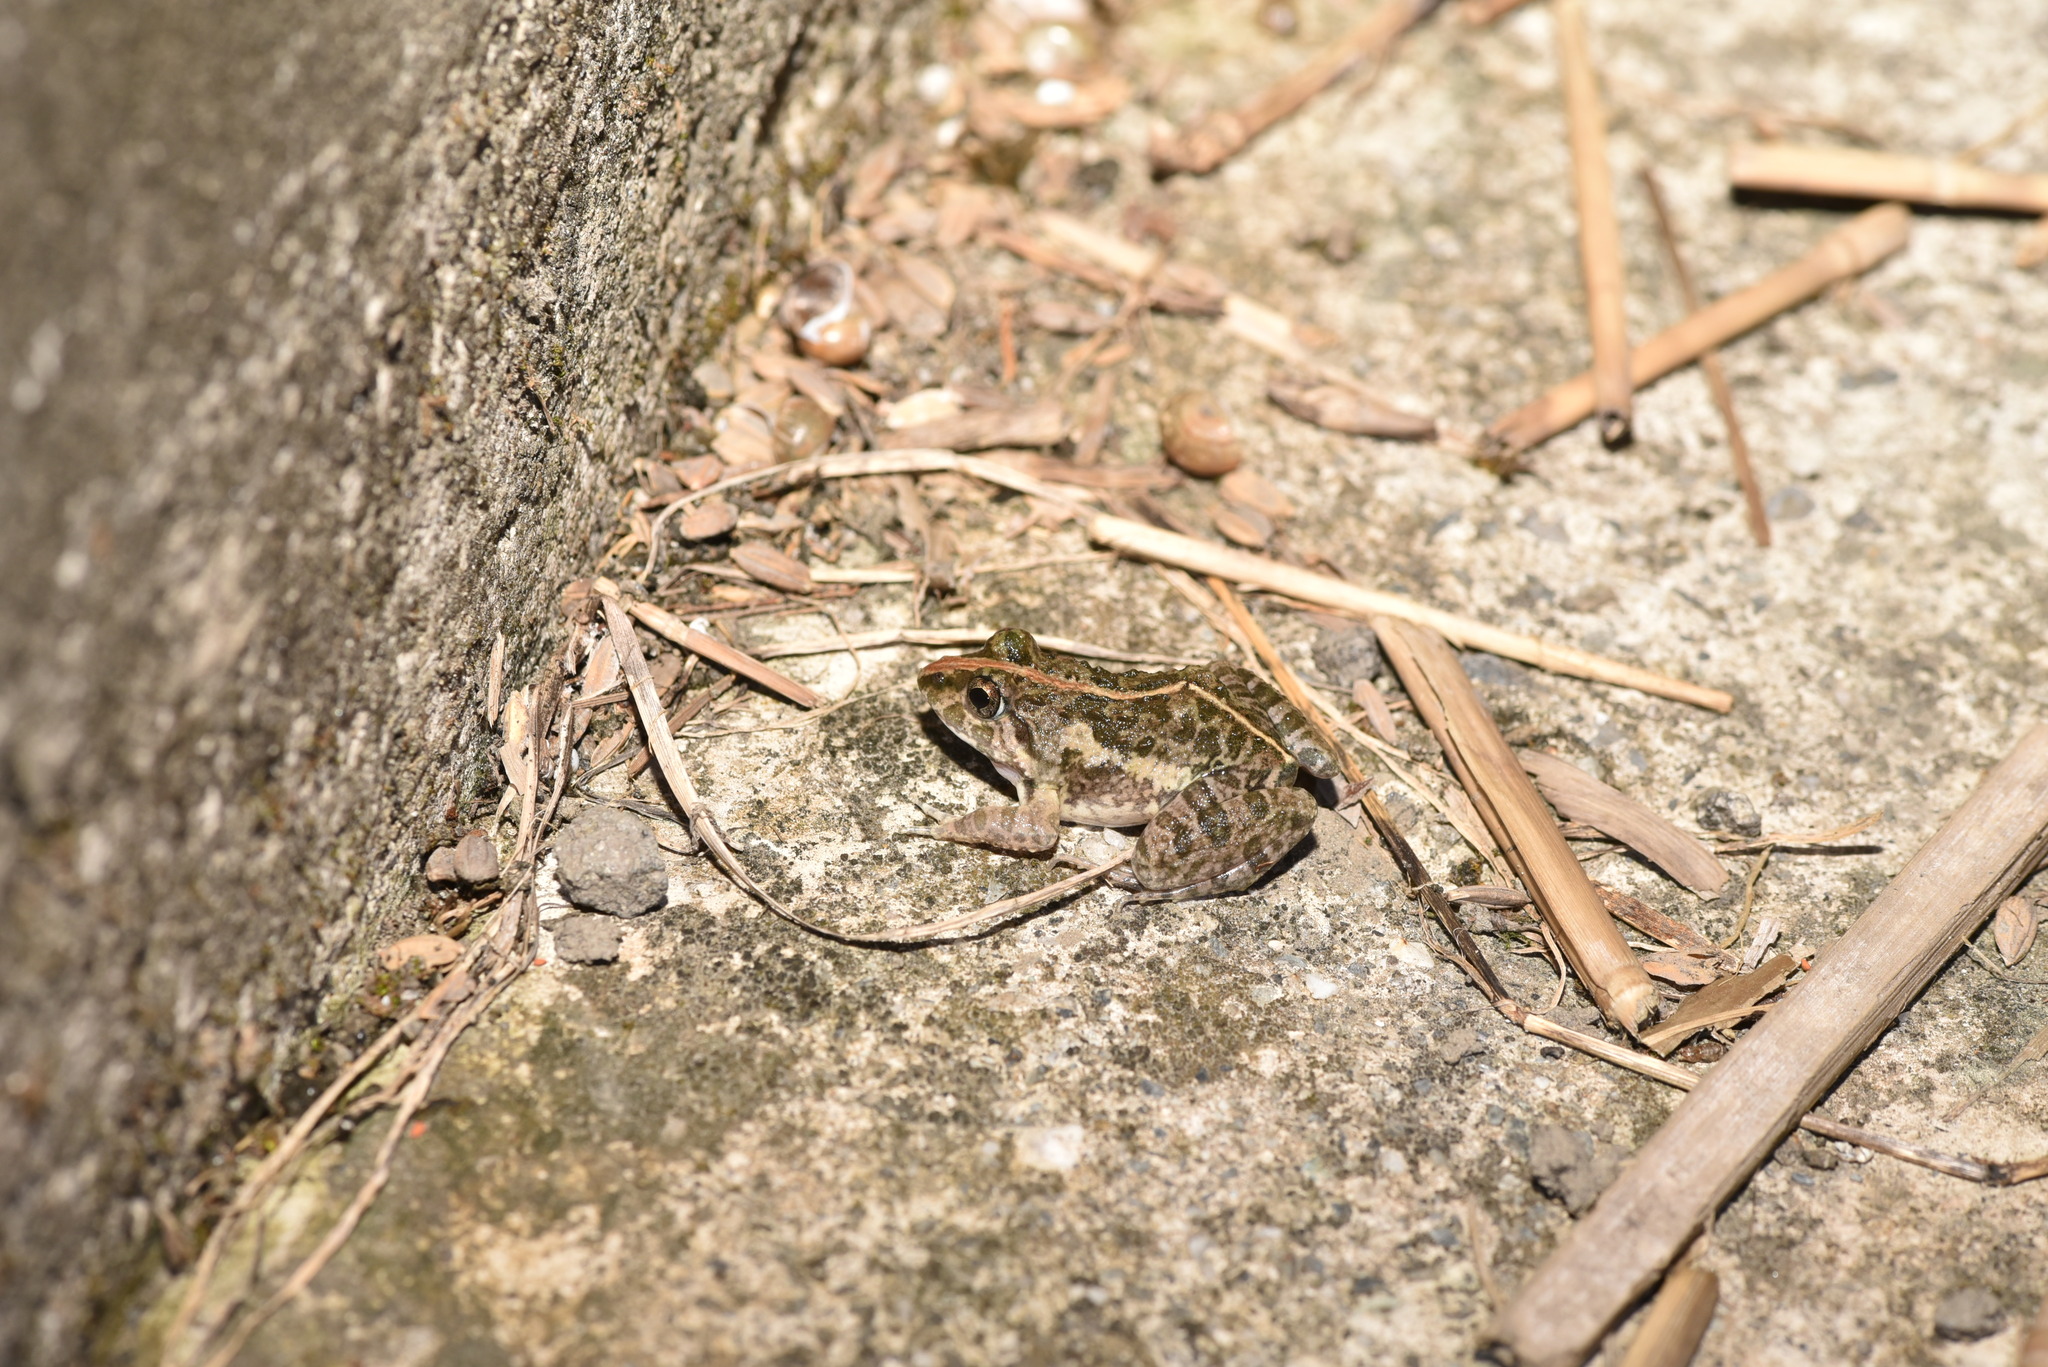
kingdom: Animalia
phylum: Chordata
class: Amphibia
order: Anura
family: Dicroglossidae
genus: Fejervarya
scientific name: Fejervarya limnocharis
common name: Asian grass frog/common pond frog/field frog/grass frog/indian rice frog
